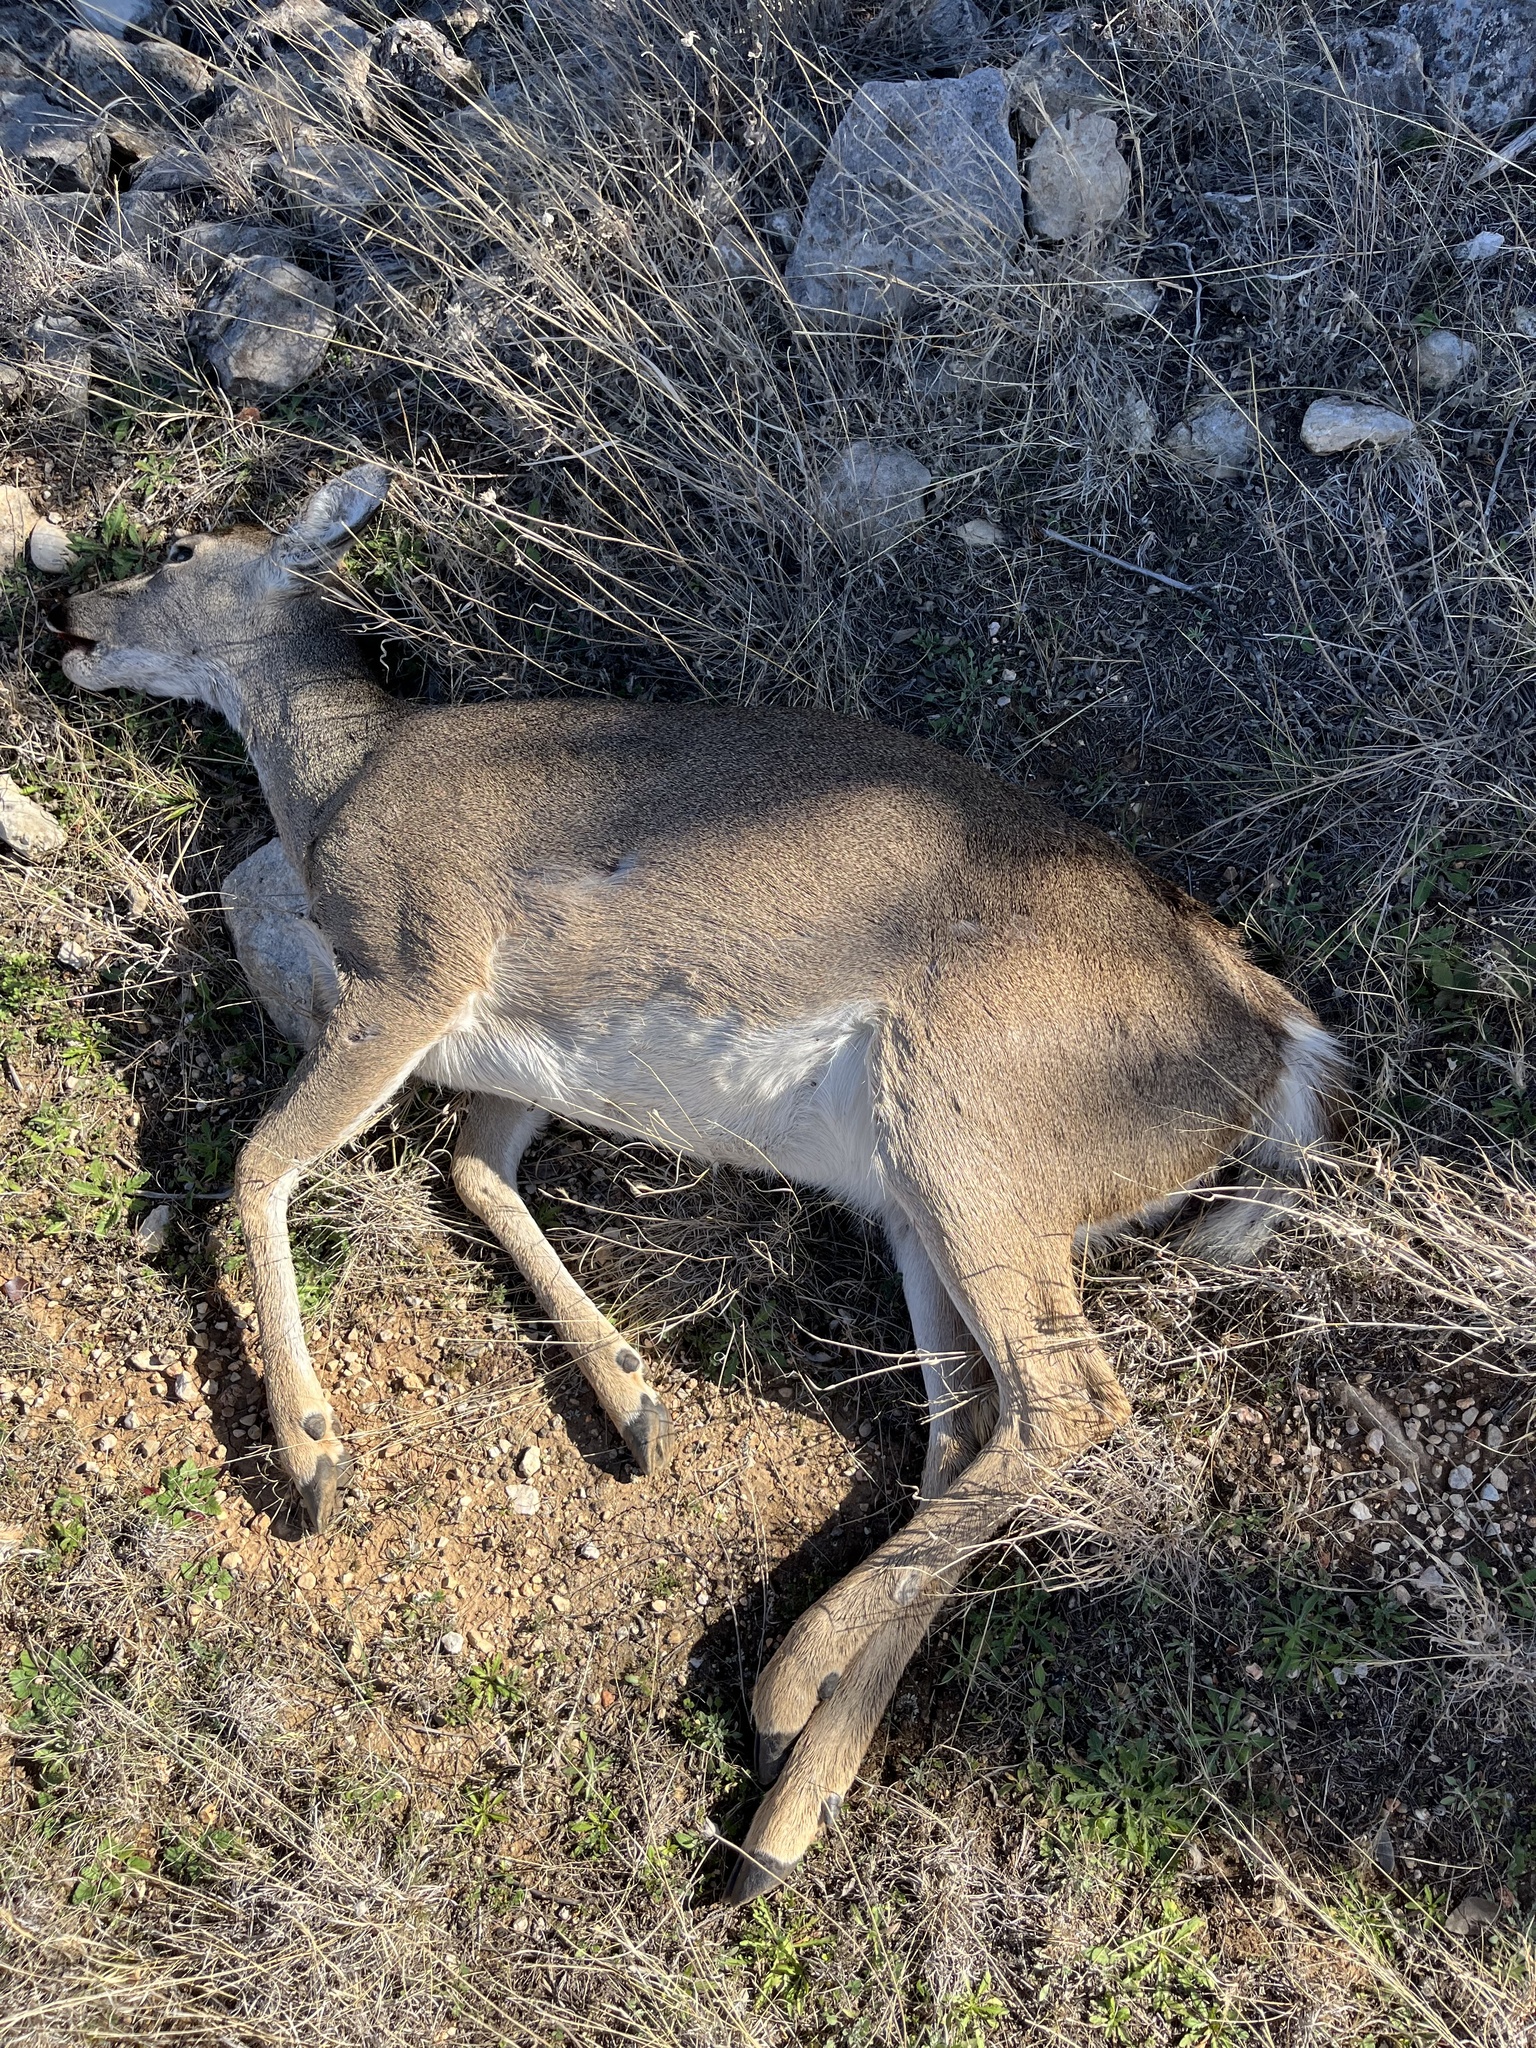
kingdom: Animalia
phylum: Chordata
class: Mammalia
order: Artiodactyla
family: Cervidae
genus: Odocoileus
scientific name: Odocoileus virginianus
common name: White-tailed deer
